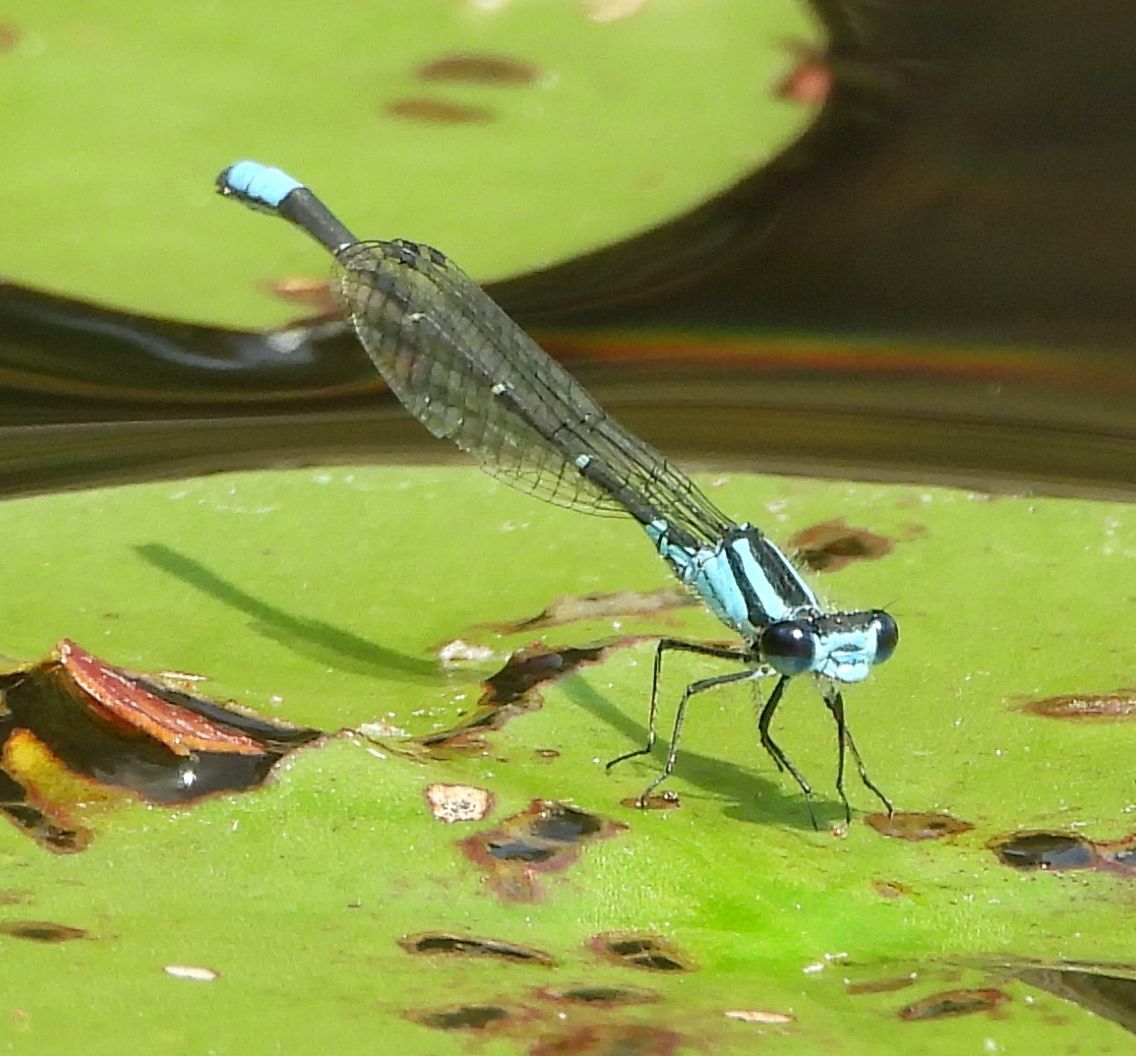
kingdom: Animalia
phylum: Arthropoda
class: Insecta
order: Odonata
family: Coenagrionidae
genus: Enallagma
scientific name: Enallagma geminatum
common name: Skimming bluet
